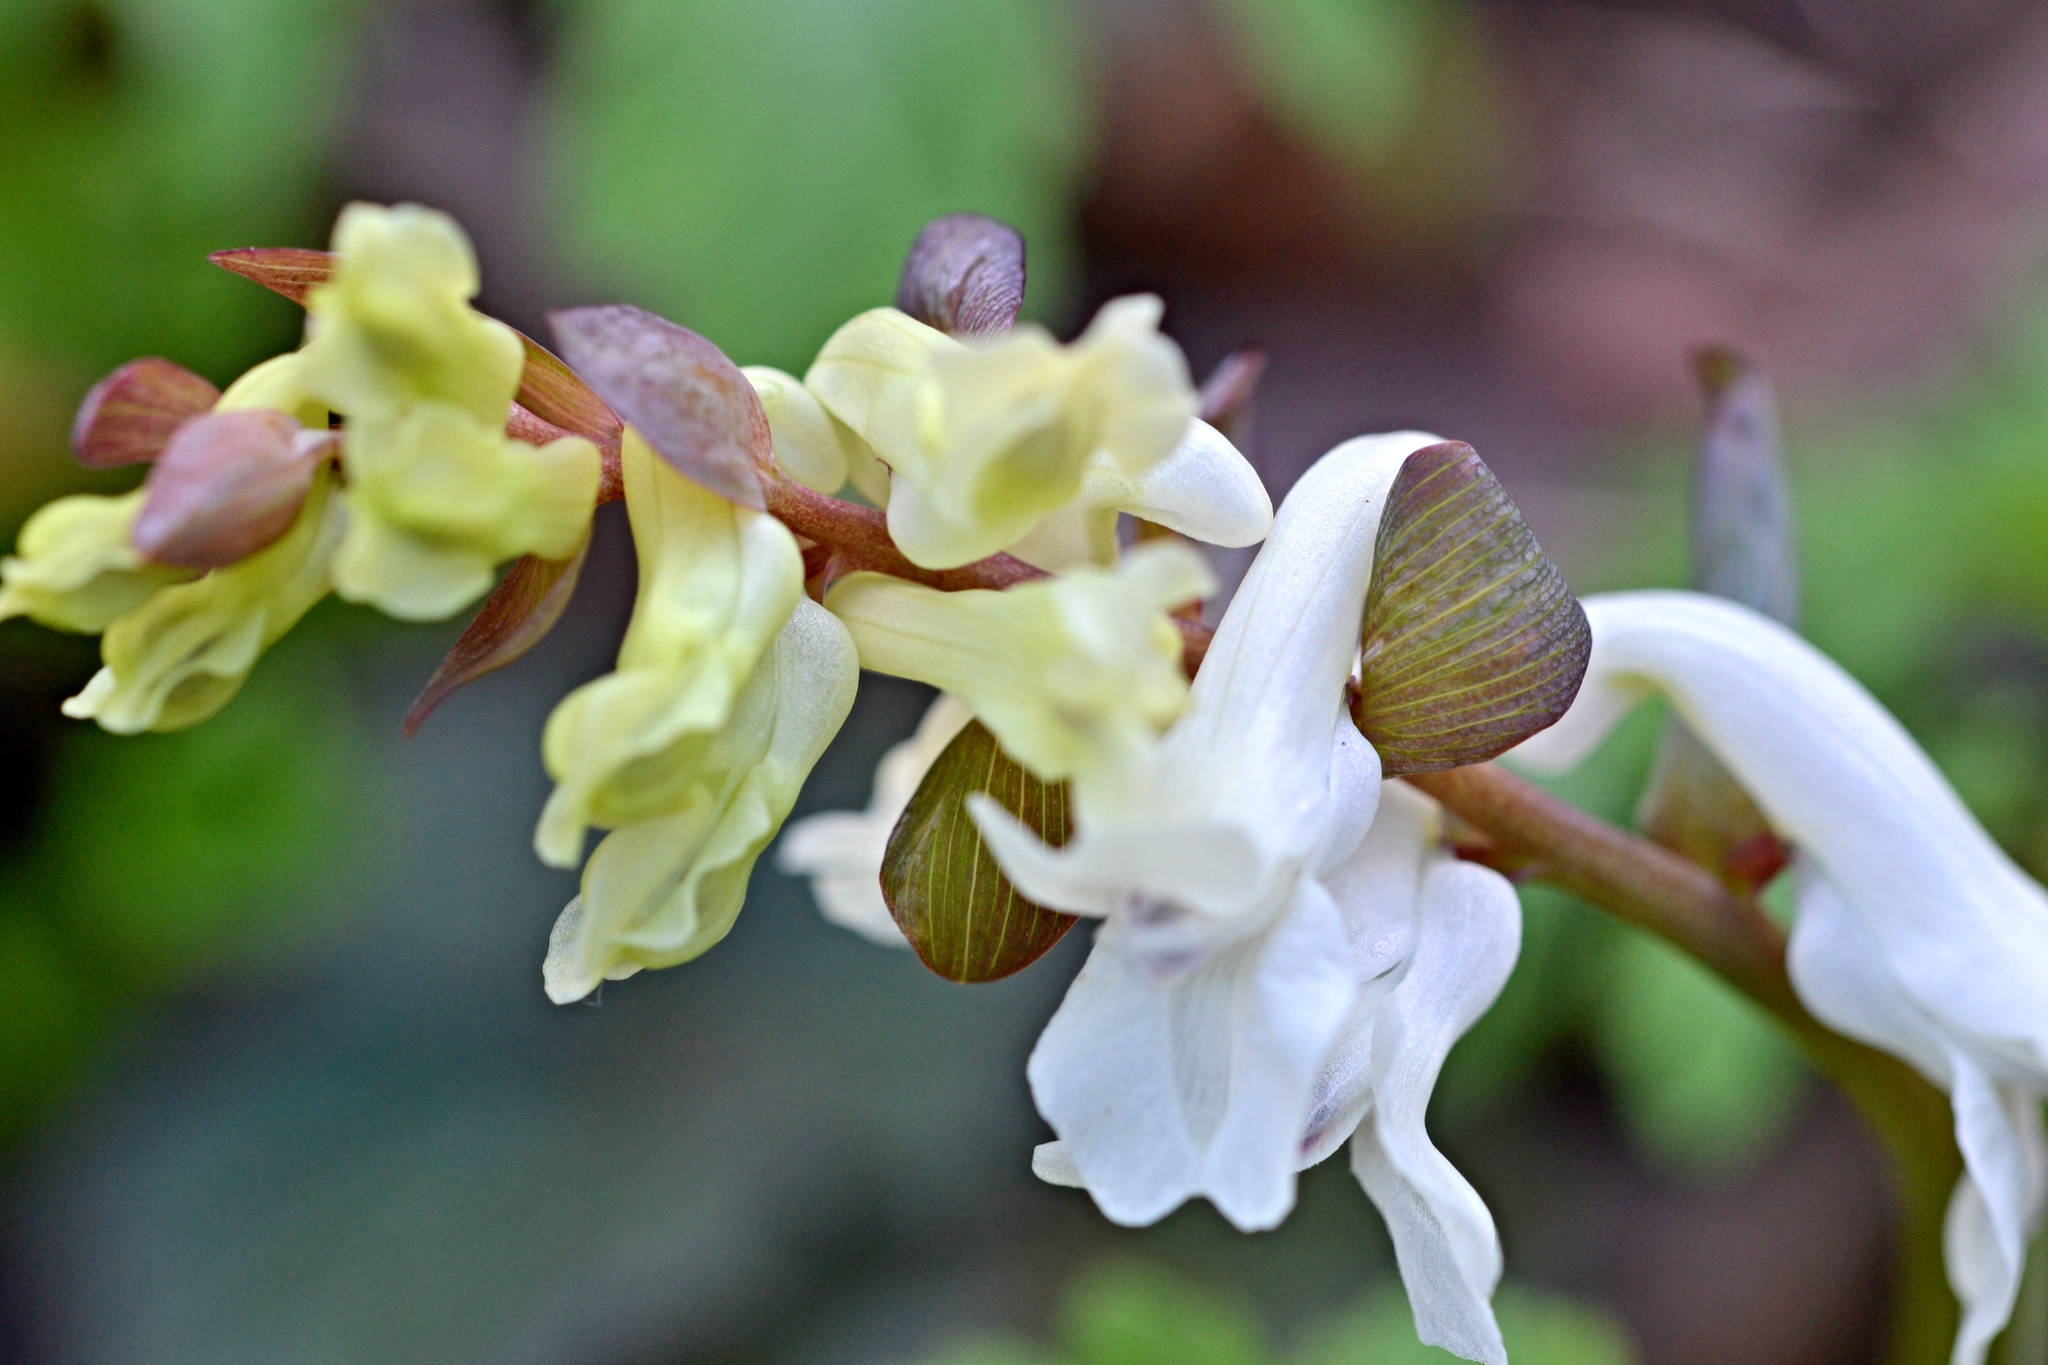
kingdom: Plantae
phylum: Tracheophyta
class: Magnoliopsida
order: Ranunculales
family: Papaveraceae
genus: Corydalis
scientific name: Corydalis cava
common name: Hollowroot
